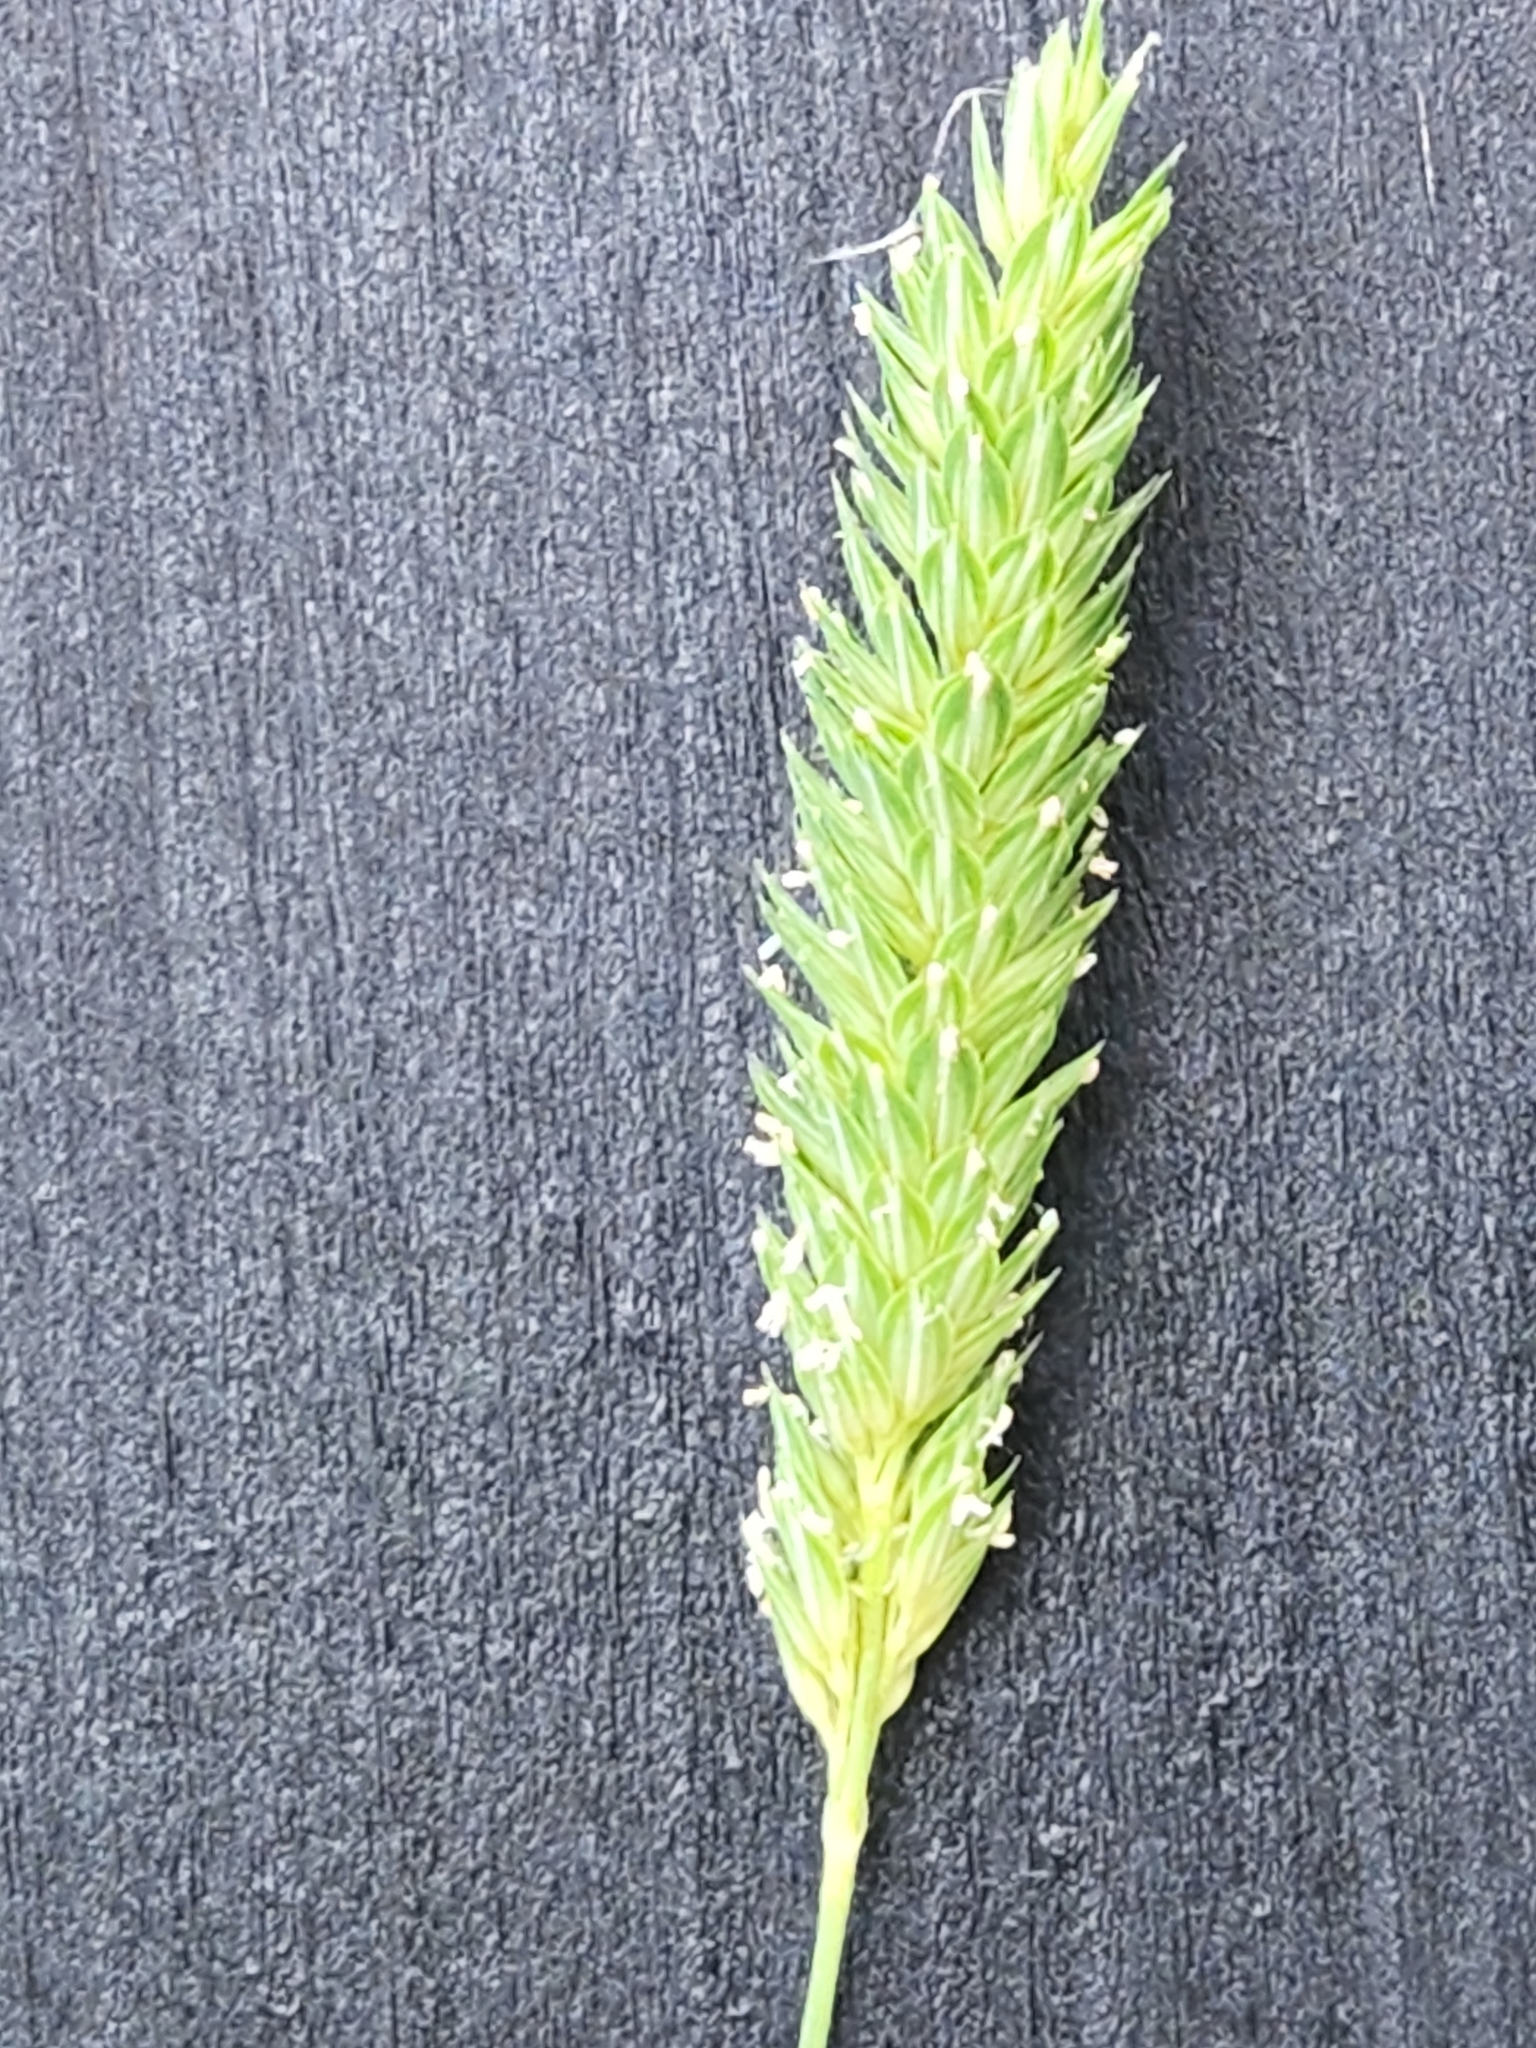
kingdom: Plantae
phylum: Tracheophyta
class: Liliopsida
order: Poales
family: Poaceae
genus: Phalaris
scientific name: Phalaris caroliniana
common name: May grass
